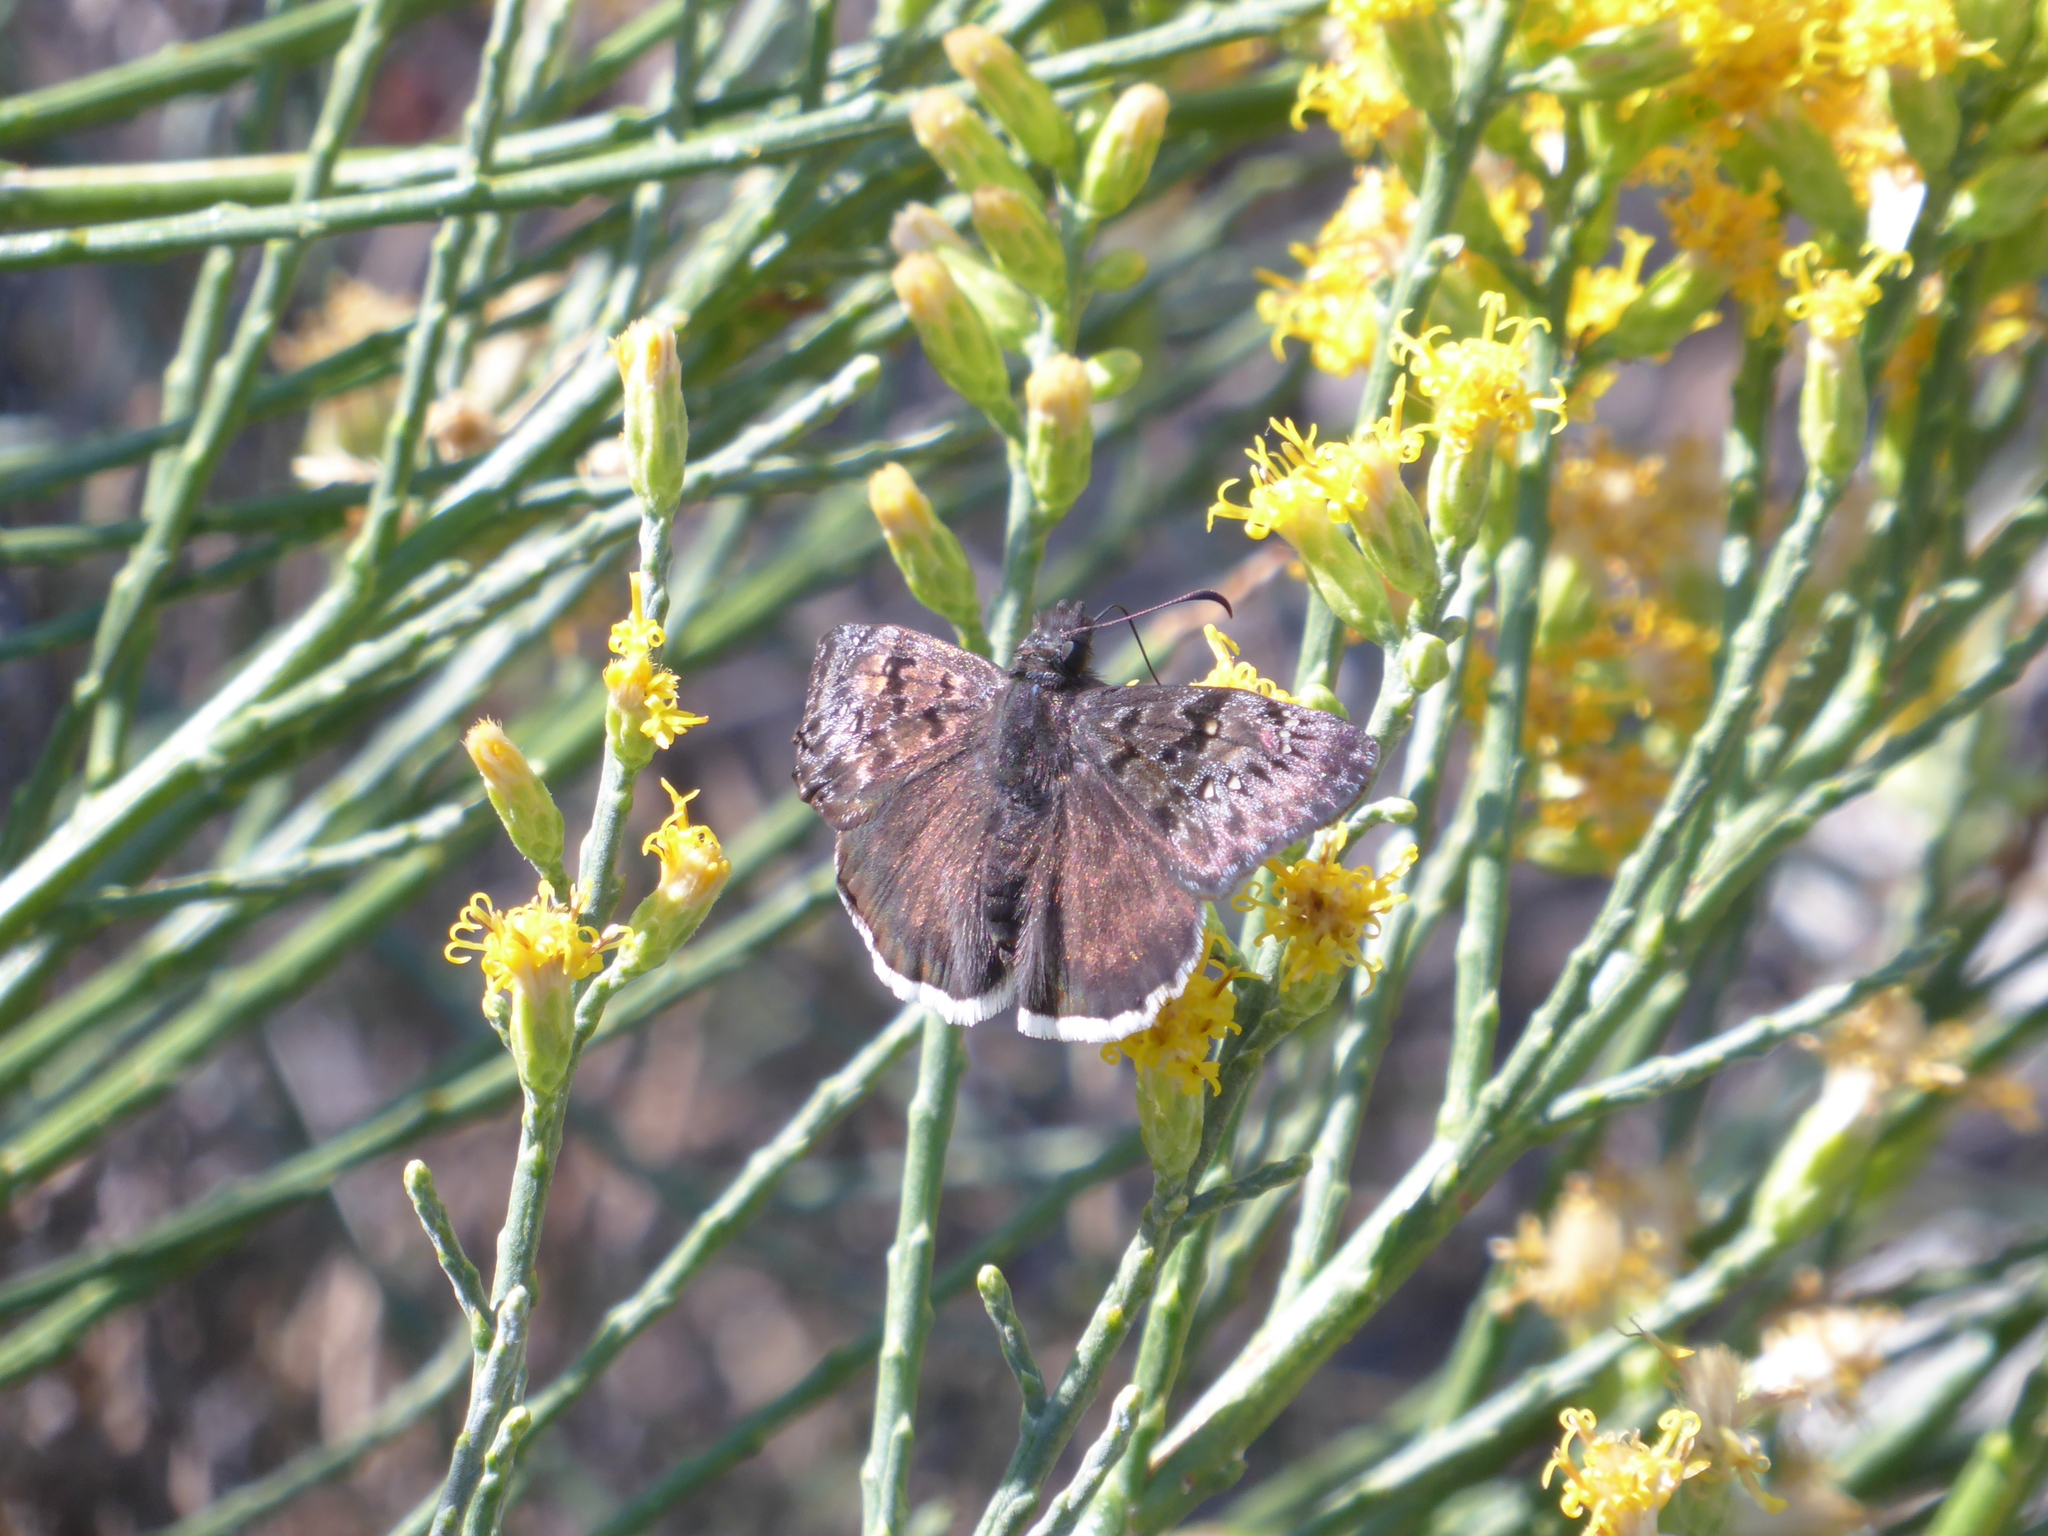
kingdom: Animalia
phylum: Arthropoda
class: Insecta
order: Lepidoptera
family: Hesperiidae
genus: Erynnis
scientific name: Erynnis tristis
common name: Mournful duskywing
